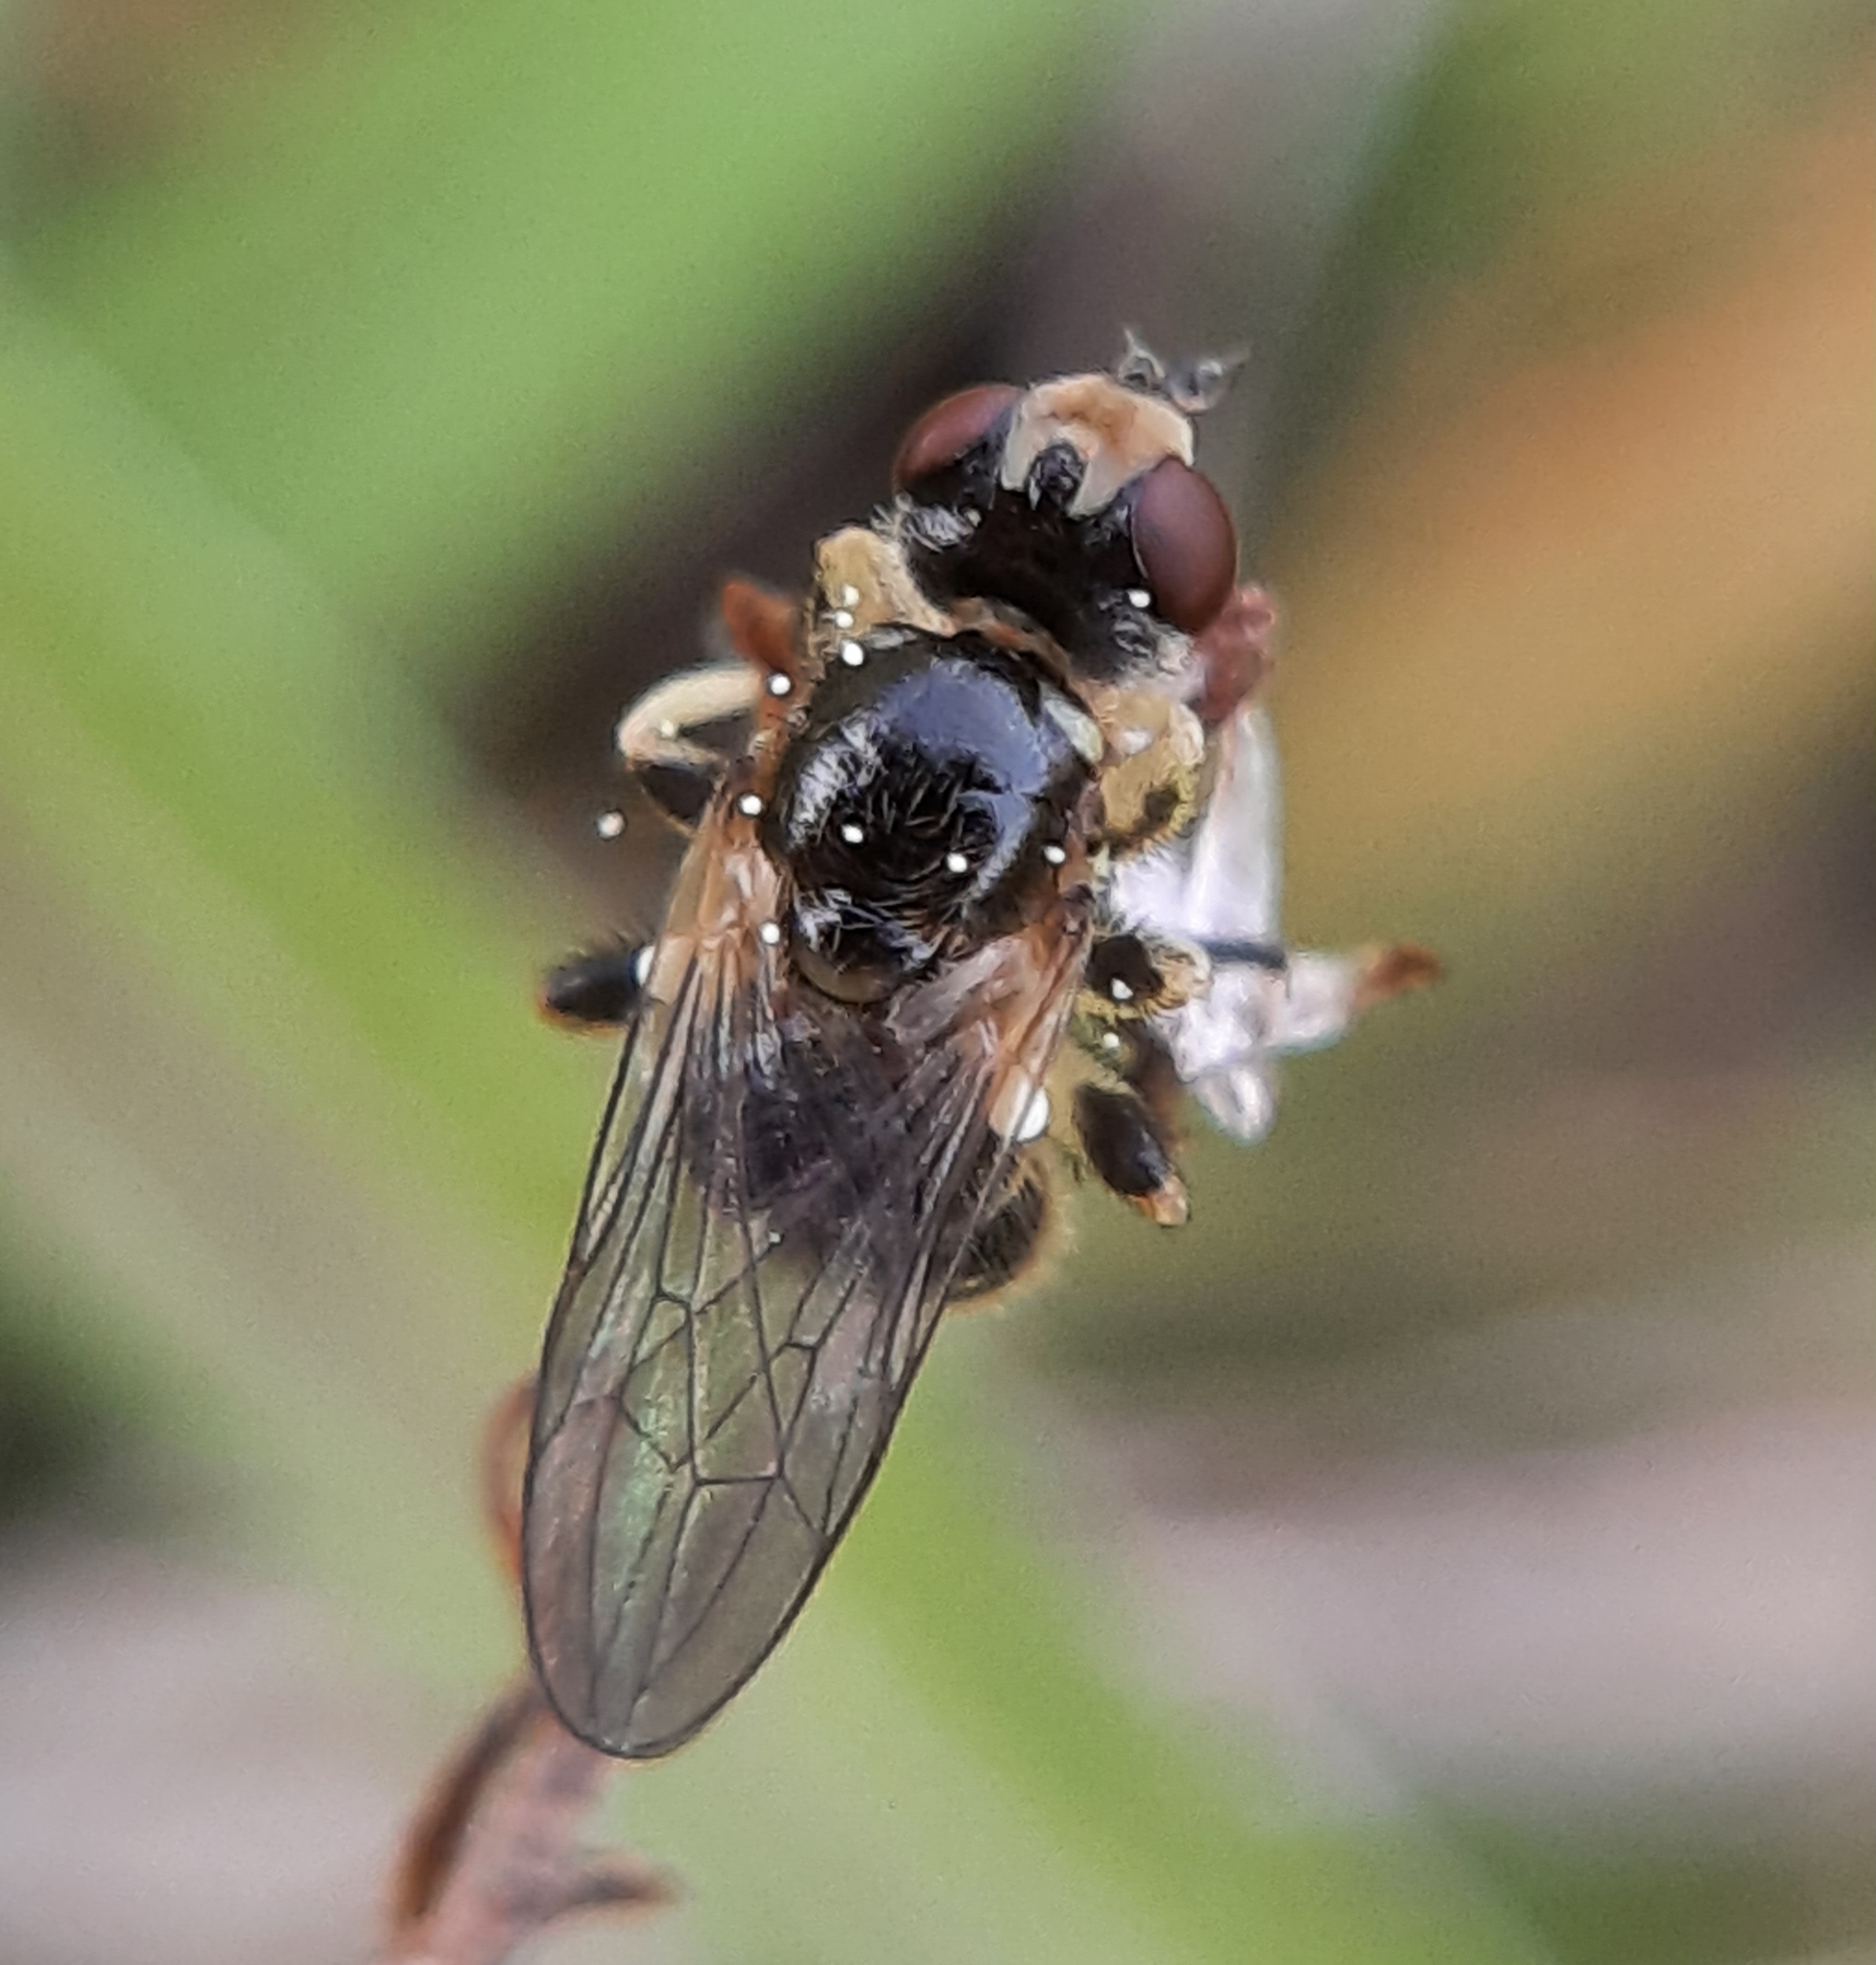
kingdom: Animalia
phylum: Arthropoda
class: Insecta
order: Diptera
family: Conopidae
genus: Dalmannia
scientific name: Dalmannia nigriceps
